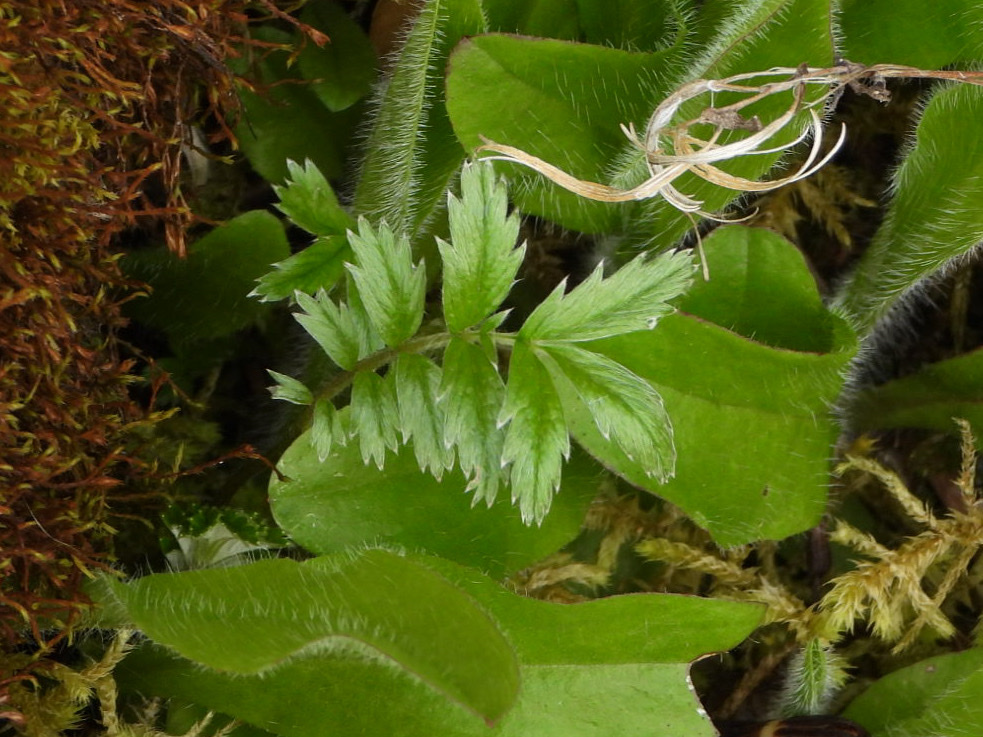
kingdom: Plantae
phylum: Tracheophyta
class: Magnoliopsida
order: Rosales
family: Rosaceae
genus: Argentina
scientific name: Argentina anserina
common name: Common silverweed
